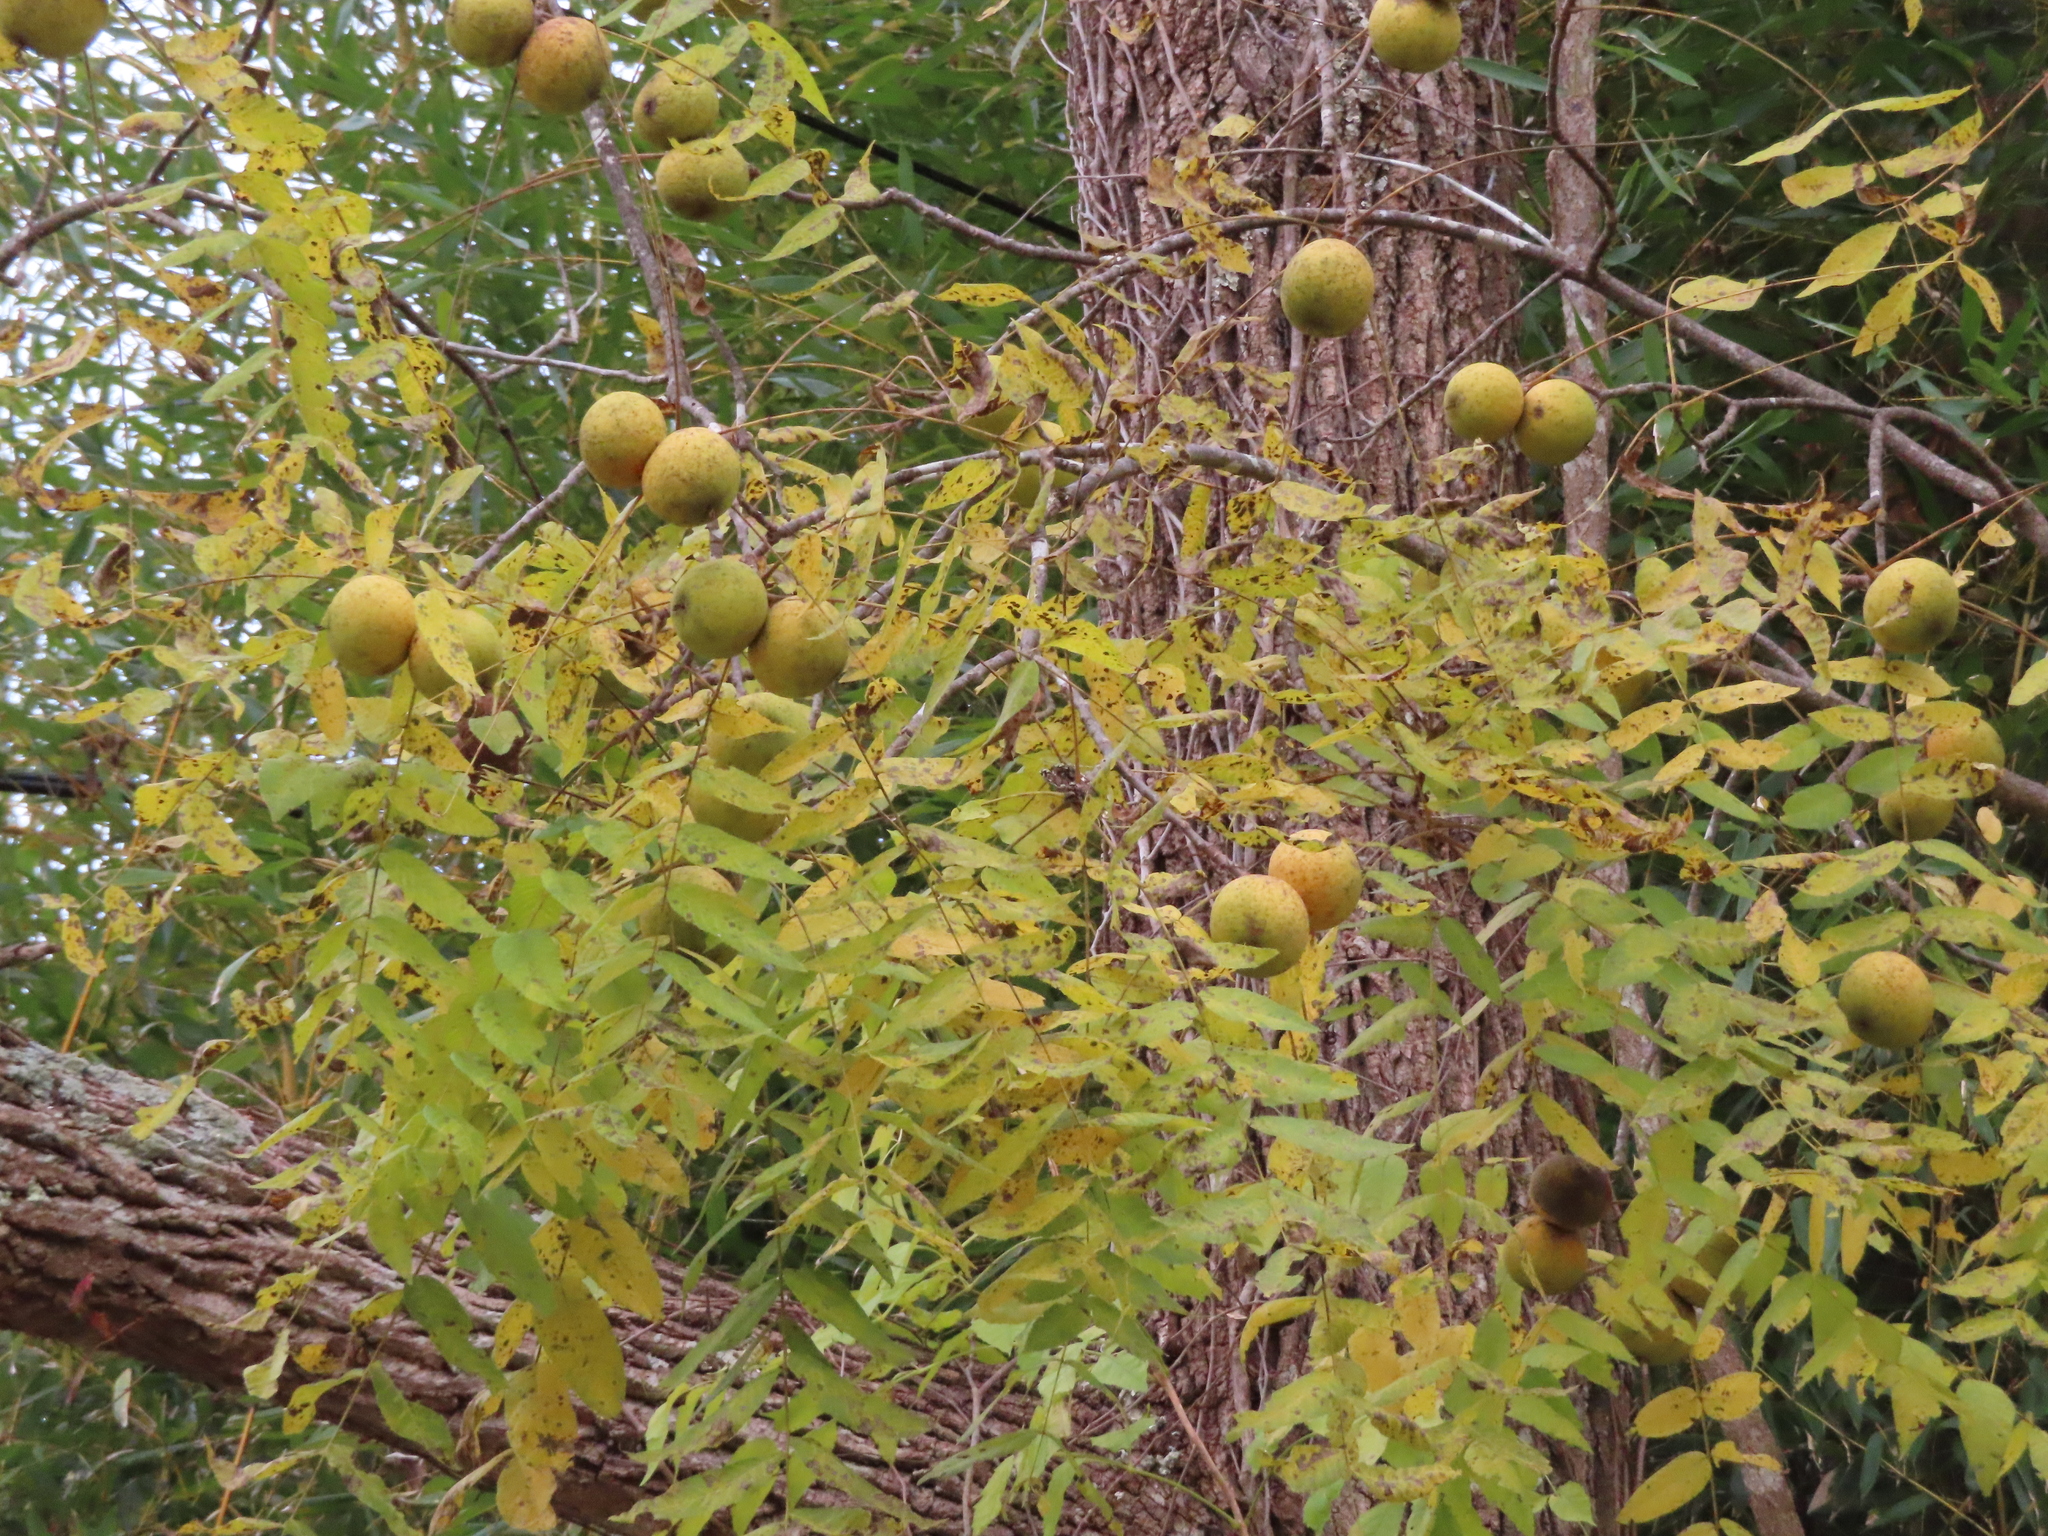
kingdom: Plantae
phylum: Tracheophyta
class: Magnoliopsida
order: Fagales
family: Juglandaceae
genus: Juglans
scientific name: Juglans nigra
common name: Black walnut
